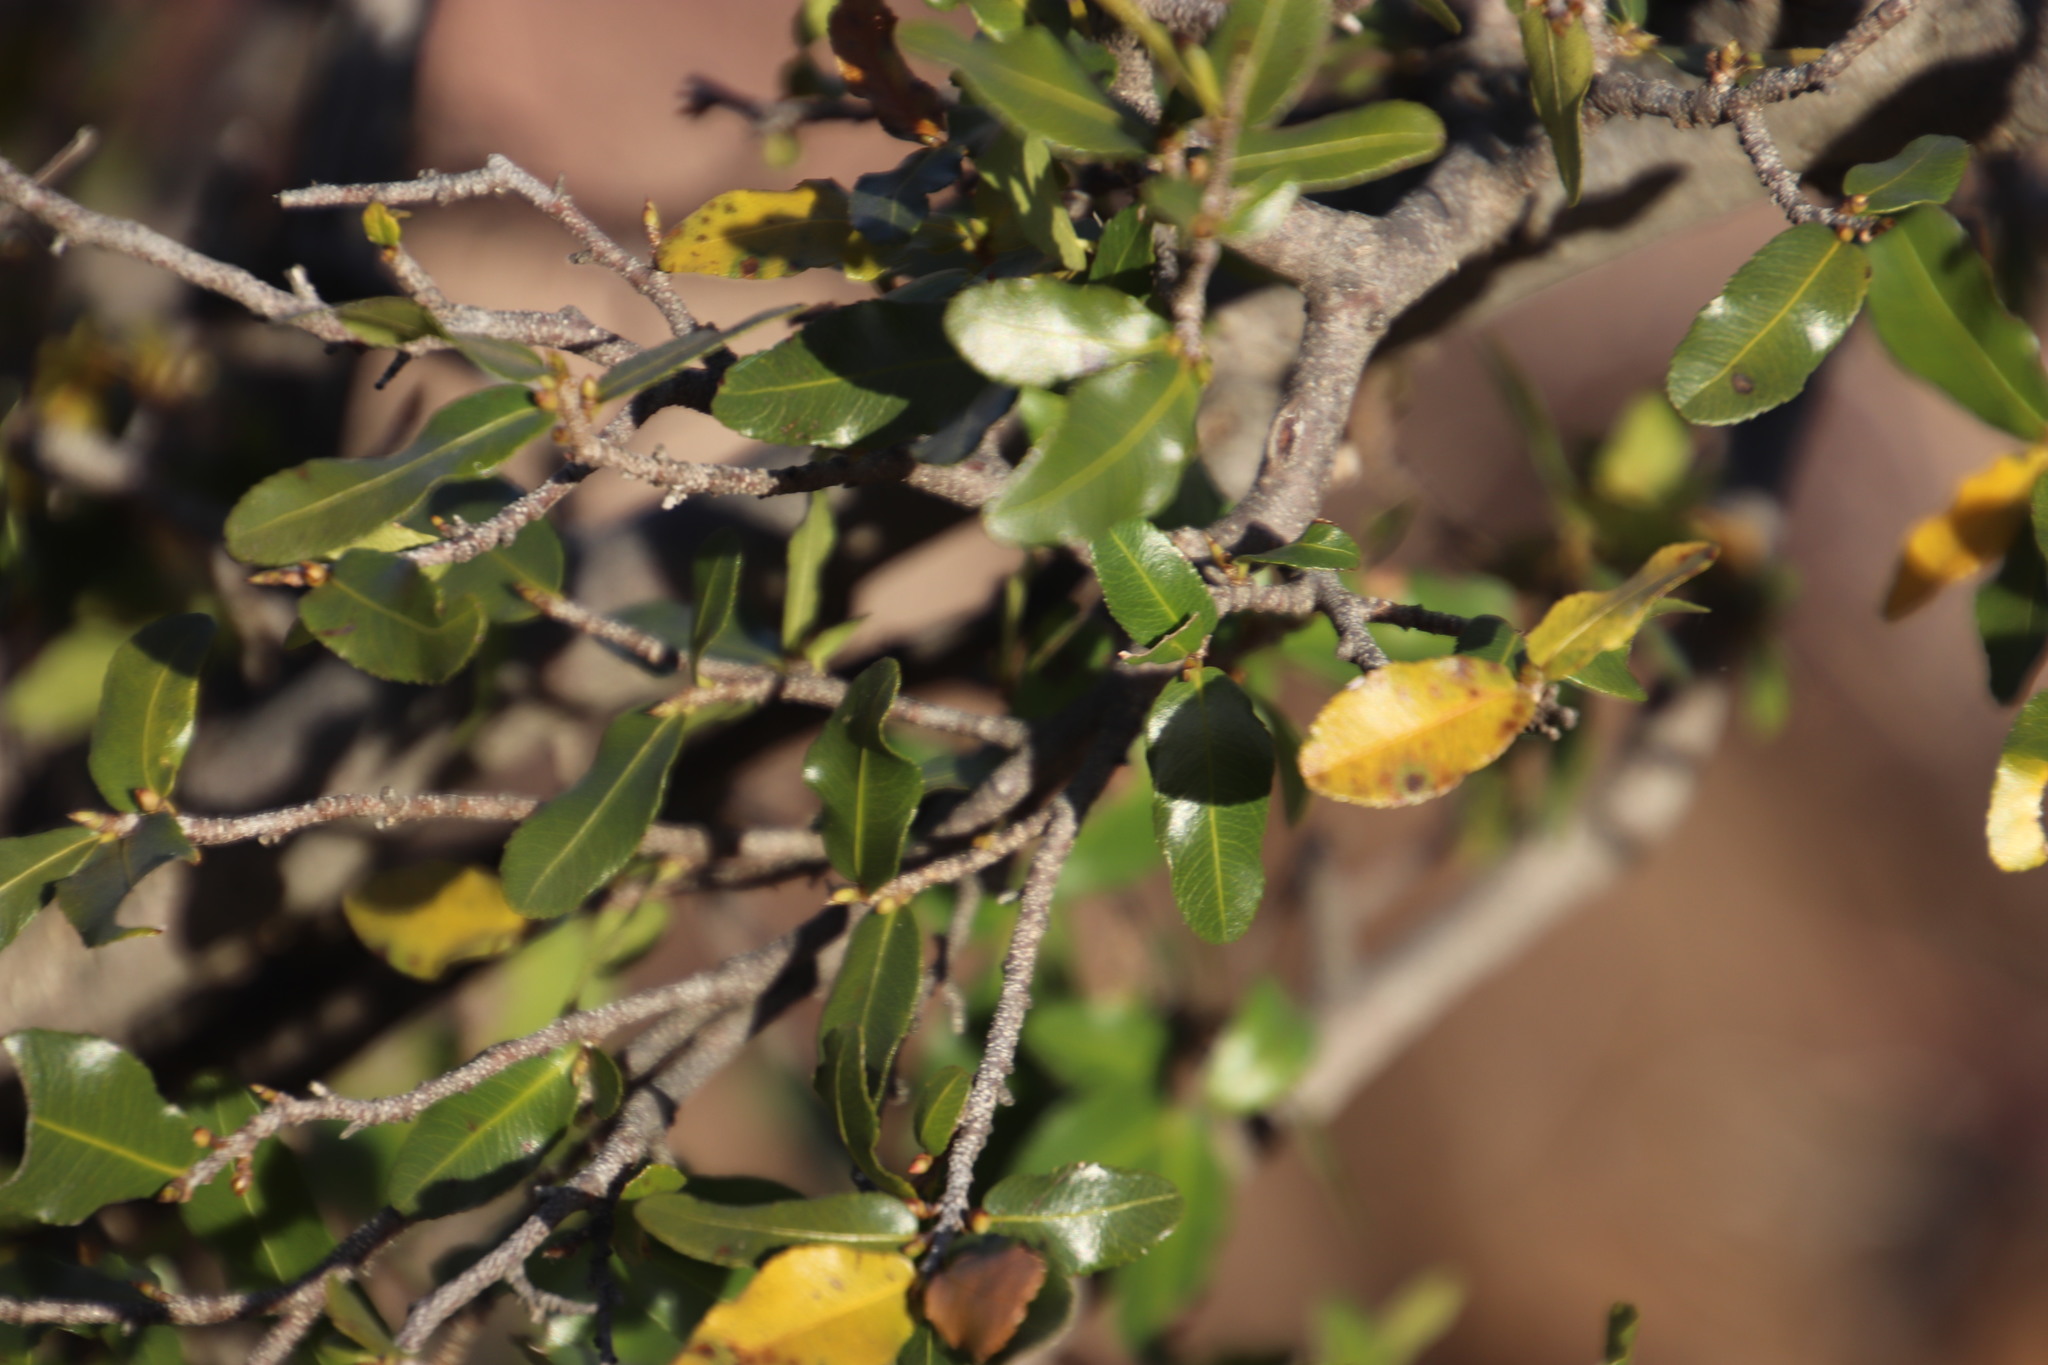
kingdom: Plantae
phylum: Tracheophyta
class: Magnoliopsida
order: Sapindales
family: Sapindaceae
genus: Pappea
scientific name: Pappea capensis
